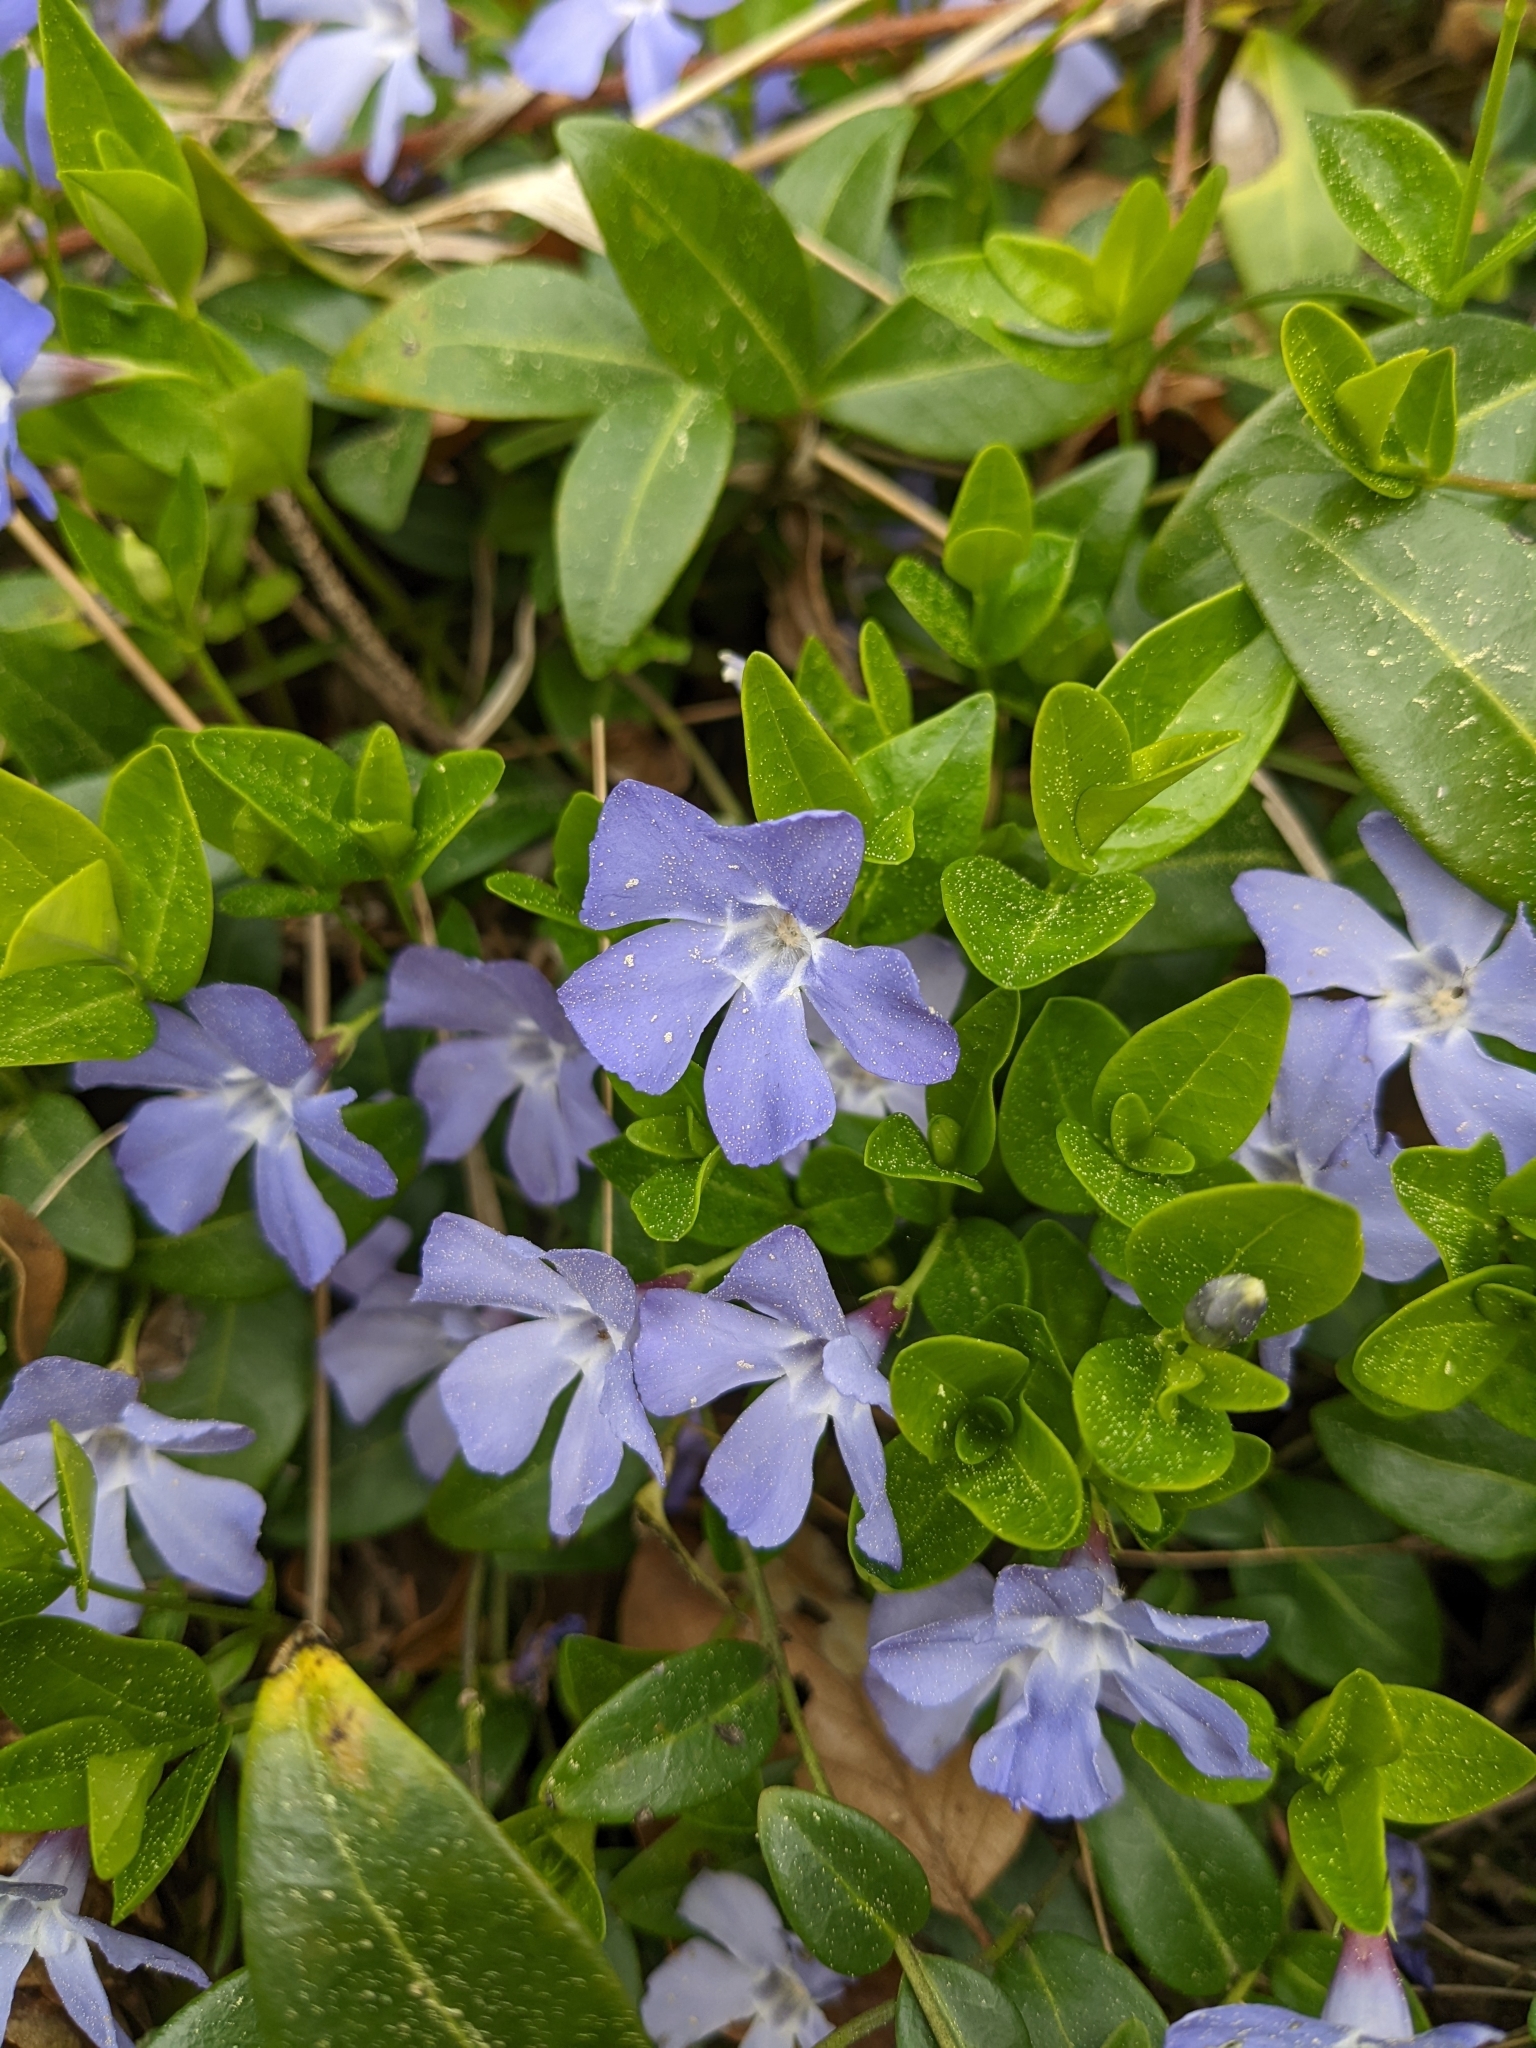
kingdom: Plantae
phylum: Tracheophyta
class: Magnoliopsida
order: Gentianales
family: Apocynaceae
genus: Vinca
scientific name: Vinca minor
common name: Lesser periwinkle
